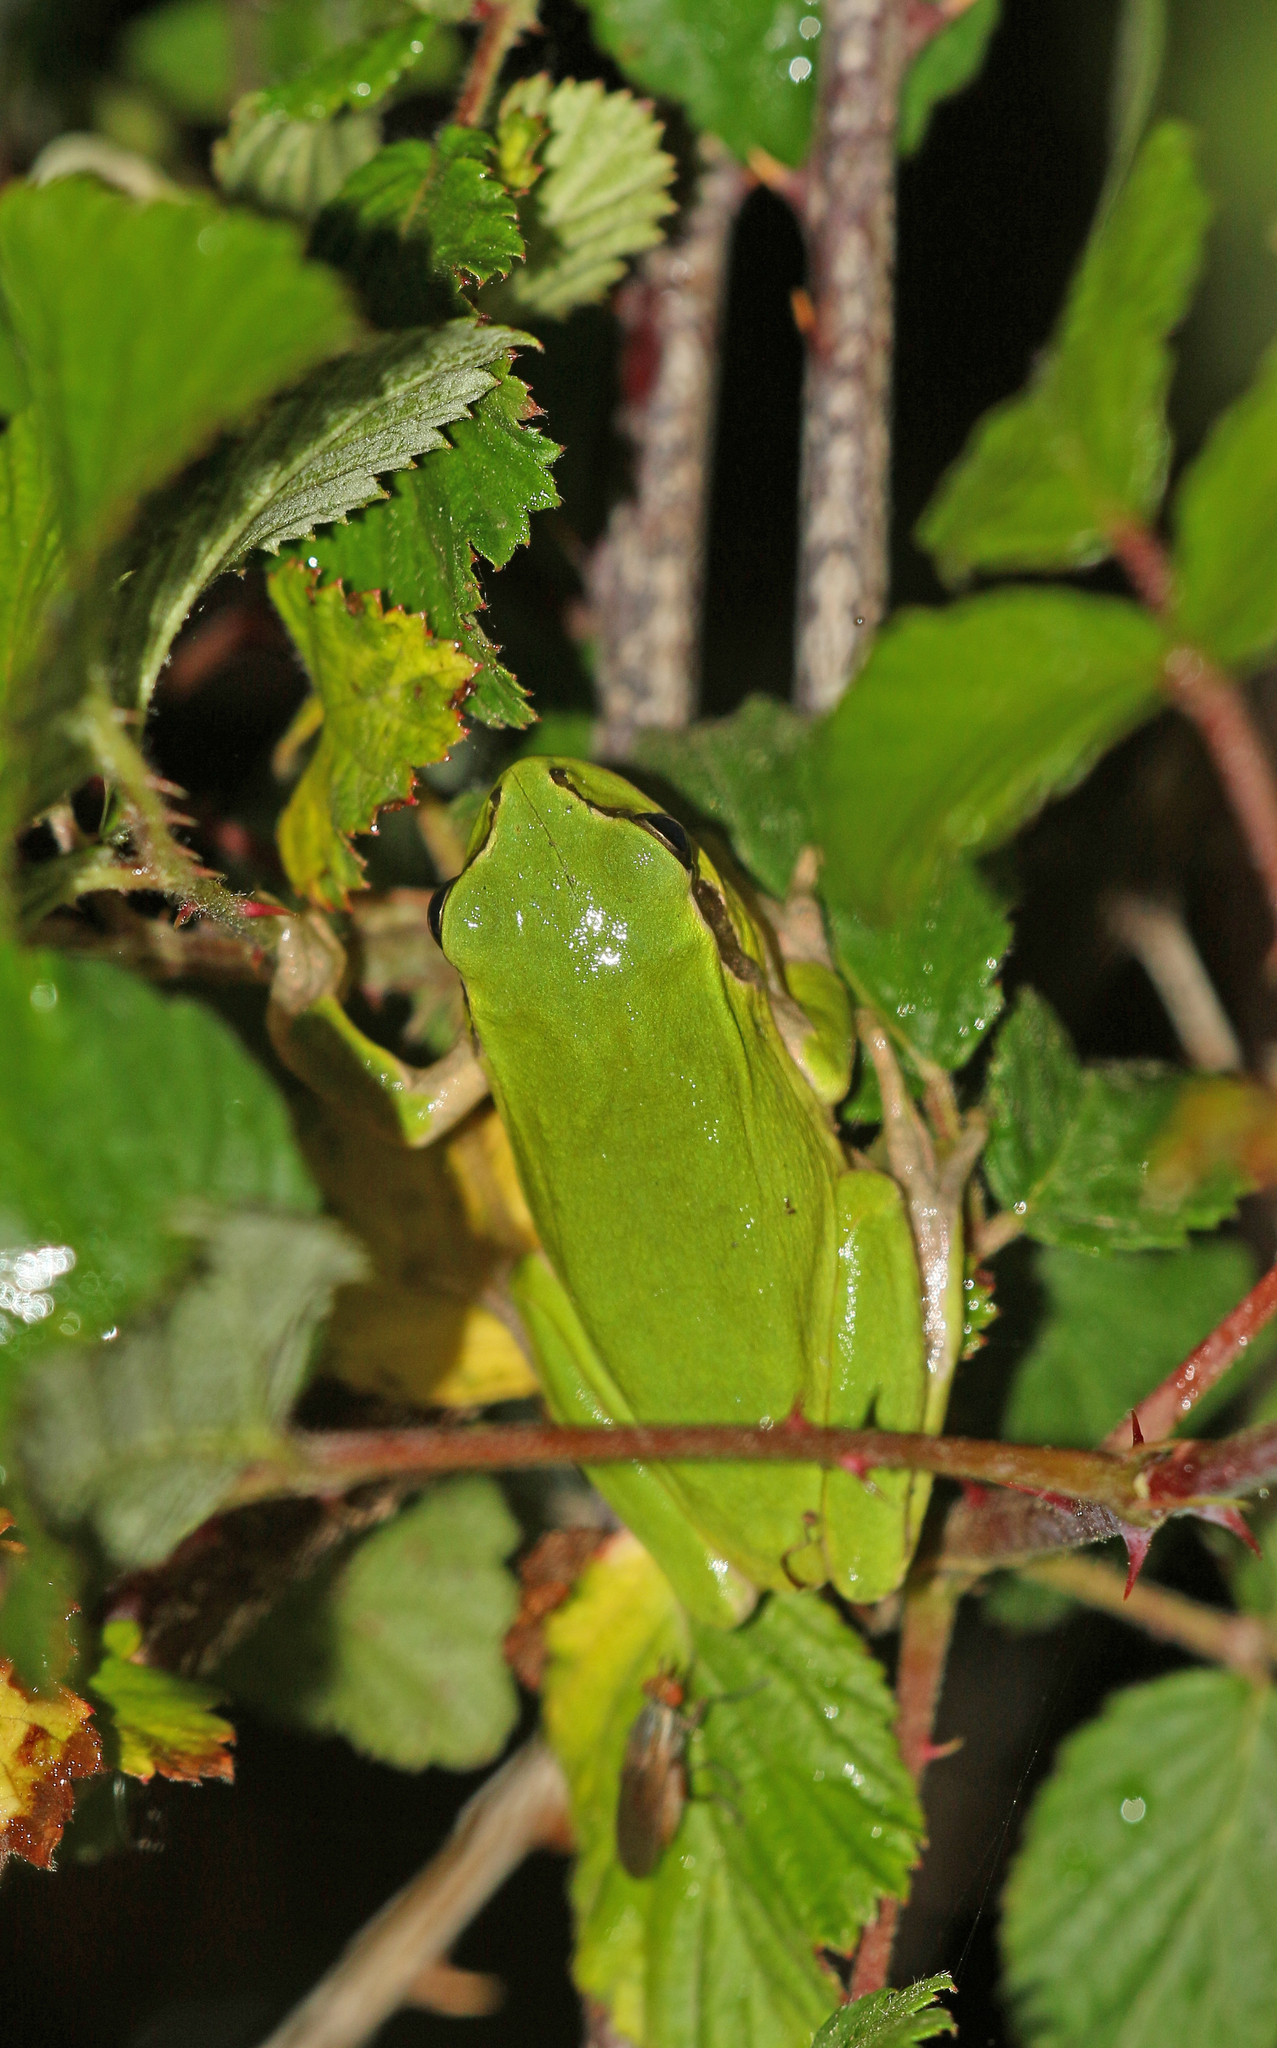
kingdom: Animalia
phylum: Chordata
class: Amphibia
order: Anura
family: Hylidae
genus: Hyla
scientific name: Hyla meridionalis
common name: Stripeless tree frog
